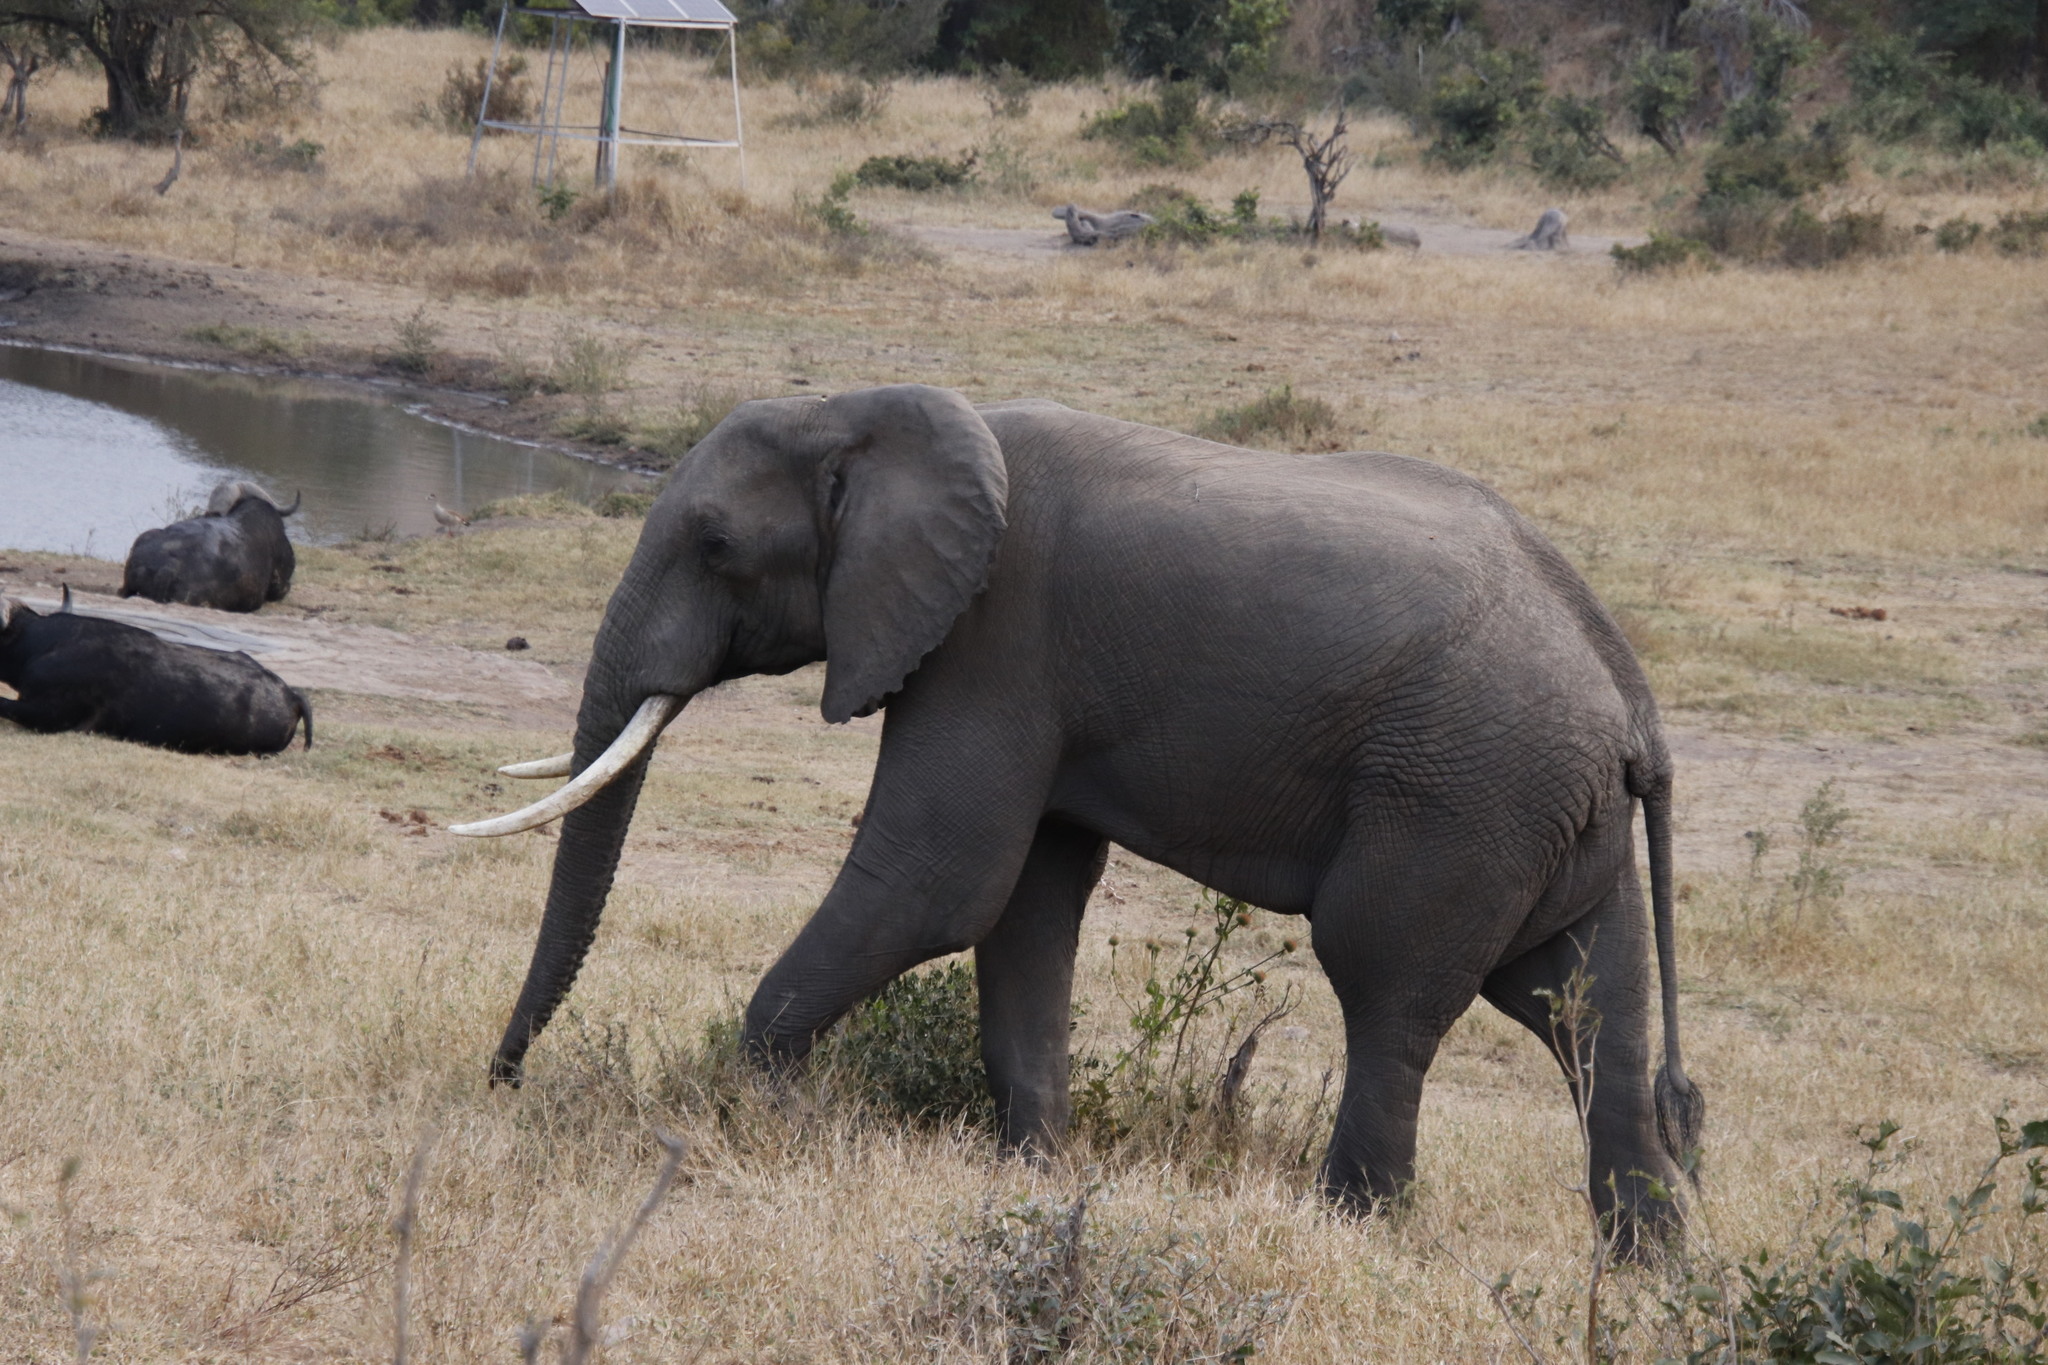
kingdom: Animalia
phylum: Chordata
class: Mammalia
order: Proboscidea
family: Elephantidae
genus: Loxodonta
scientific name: Loxodonta africana
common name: African elephant
